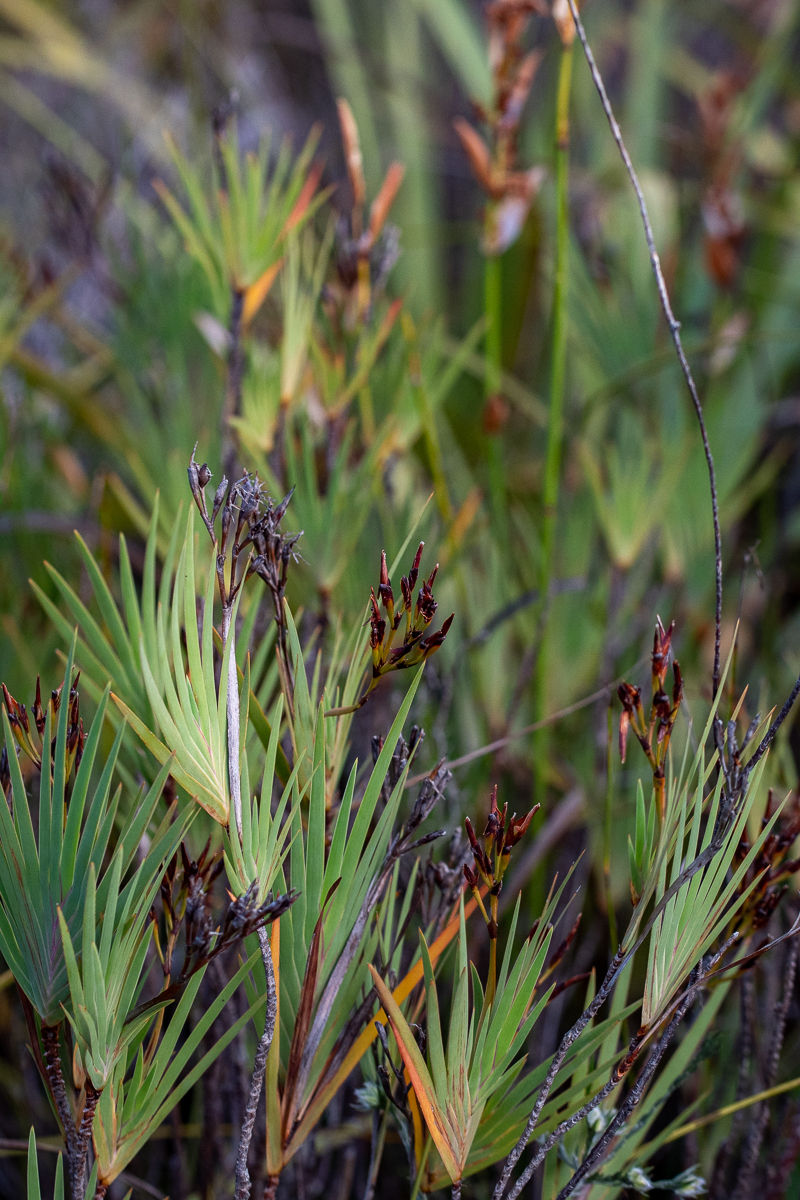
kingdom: Plantae
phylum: Tracheophyta
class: Liliopsida
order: Asparagales
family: Iridaceae
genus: Nivenia
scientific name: Nivenia stokoei
